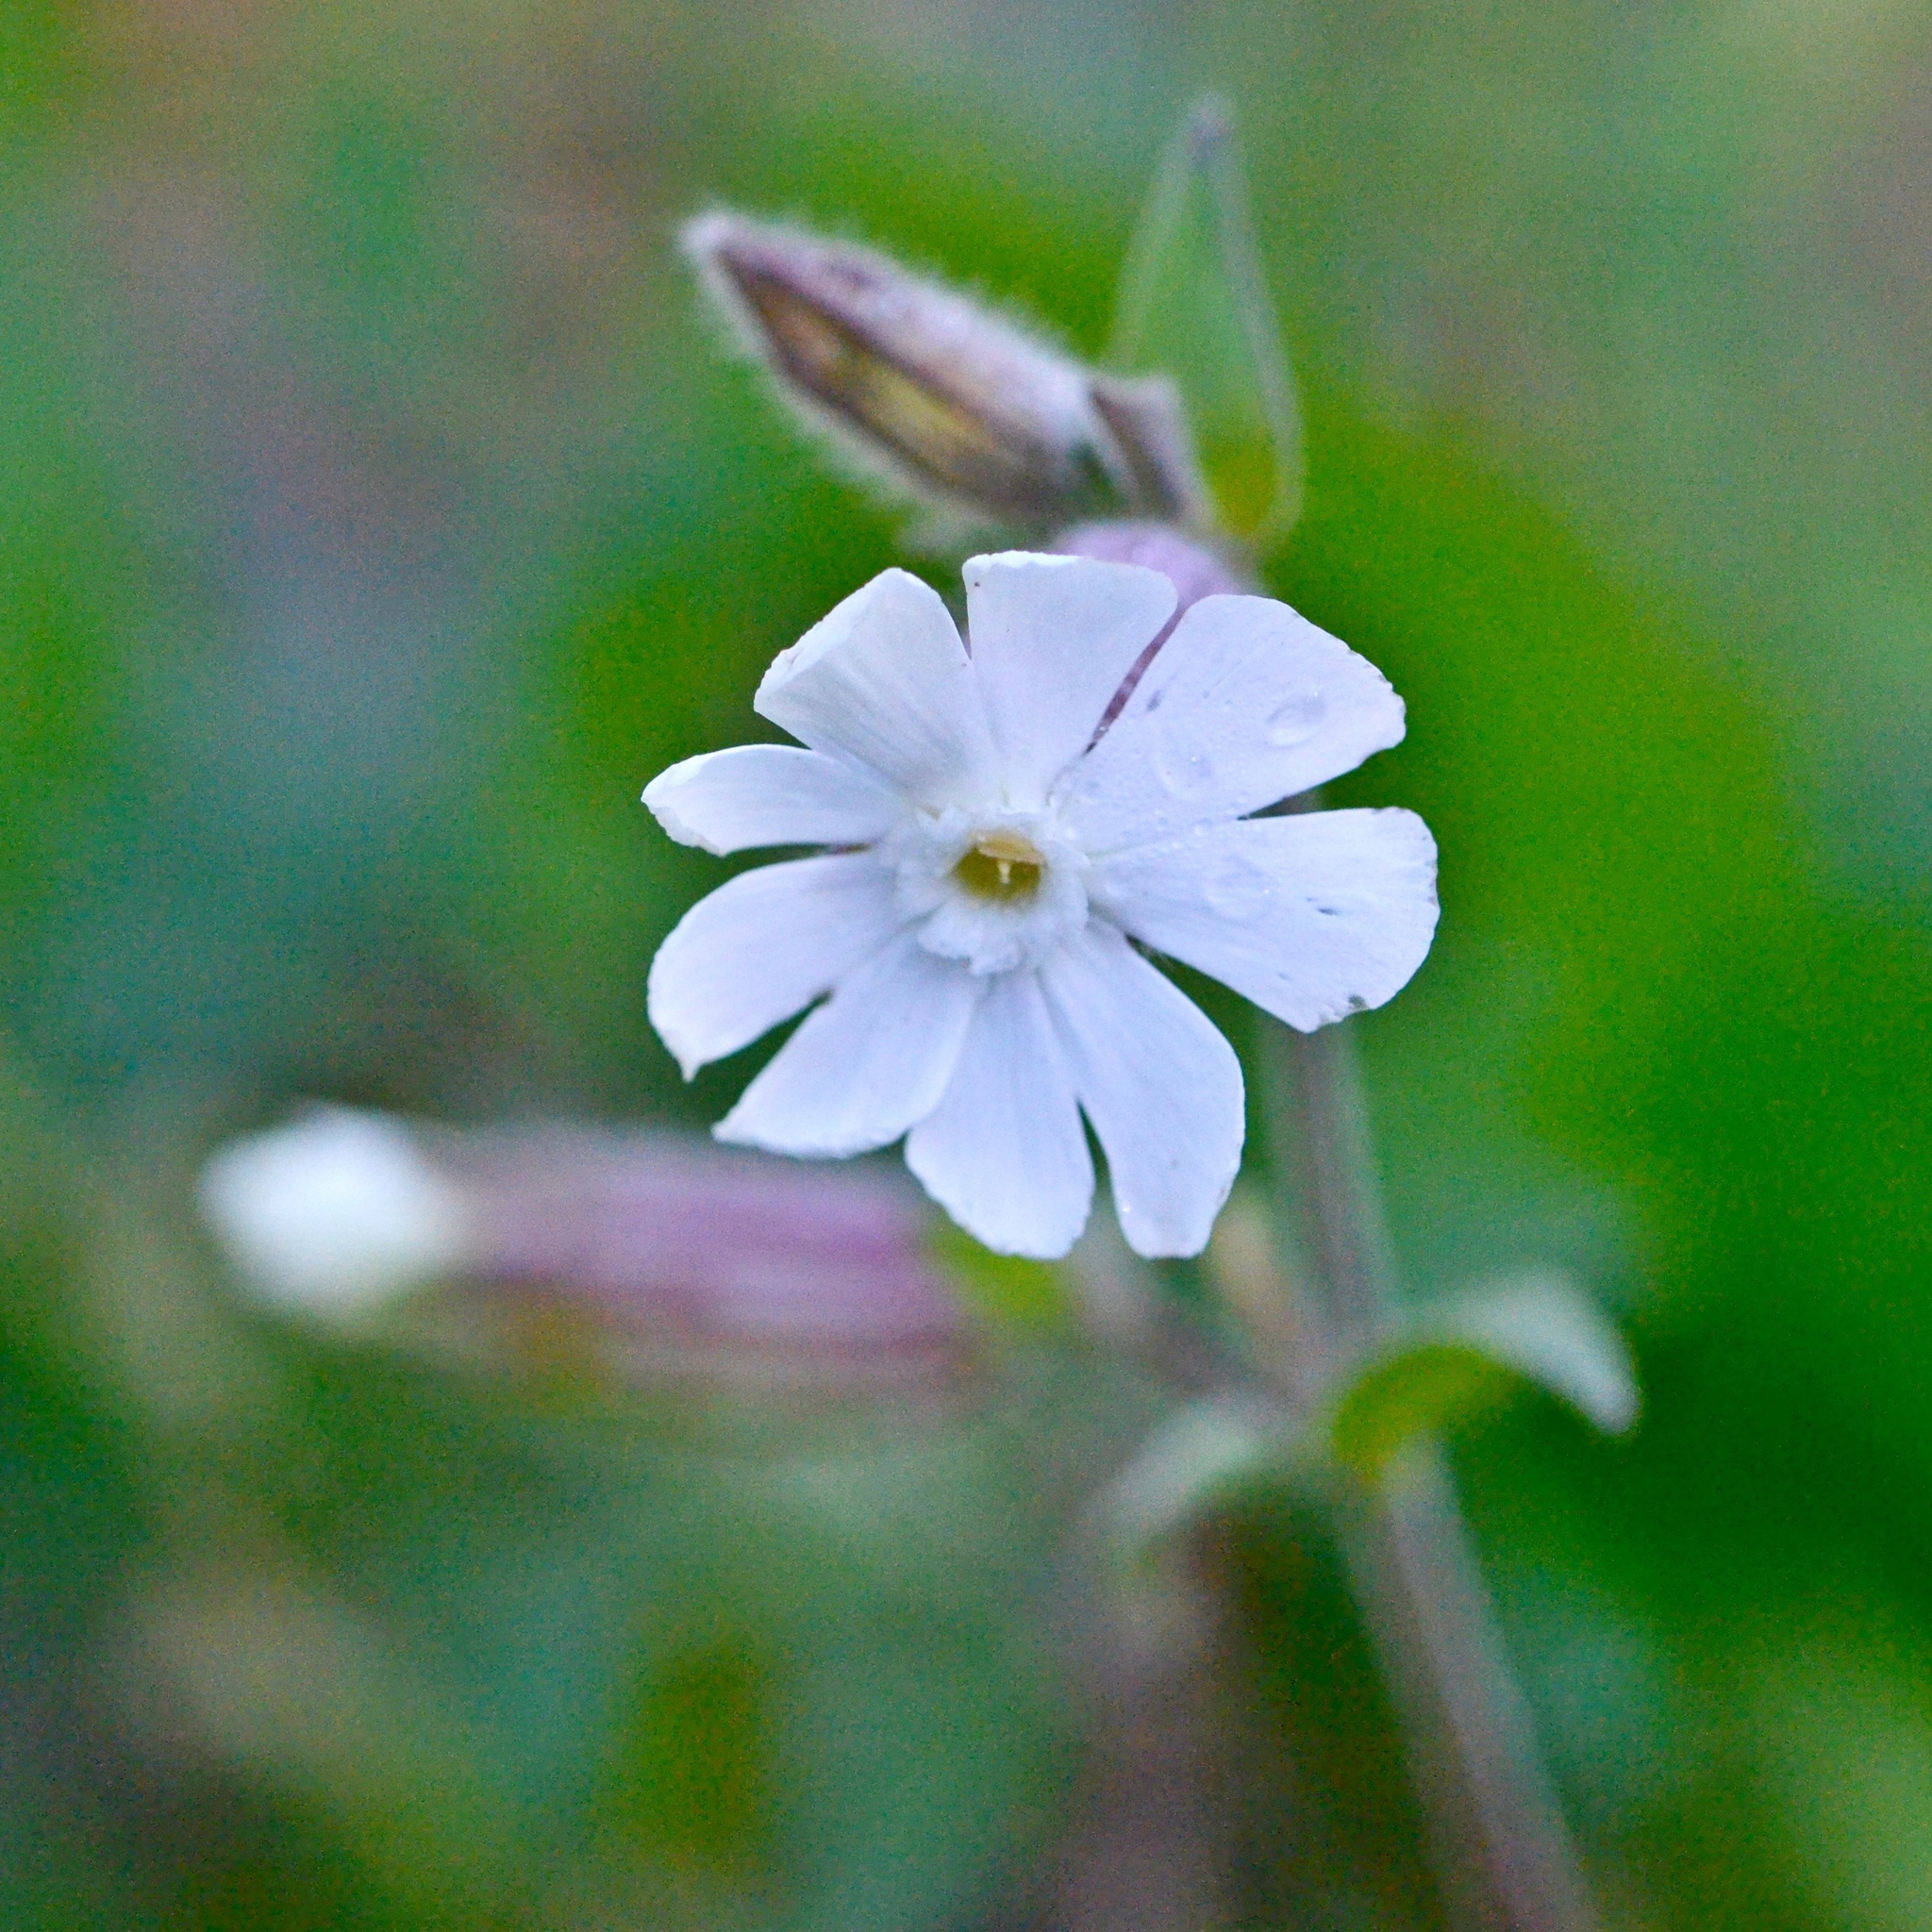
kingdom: Plantae
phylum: Tracheophyta
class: Magnoliopsida
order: Caryophyllales
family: Caryophyllaceae
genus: Silene
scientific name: Silene latifolia
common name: White campion
